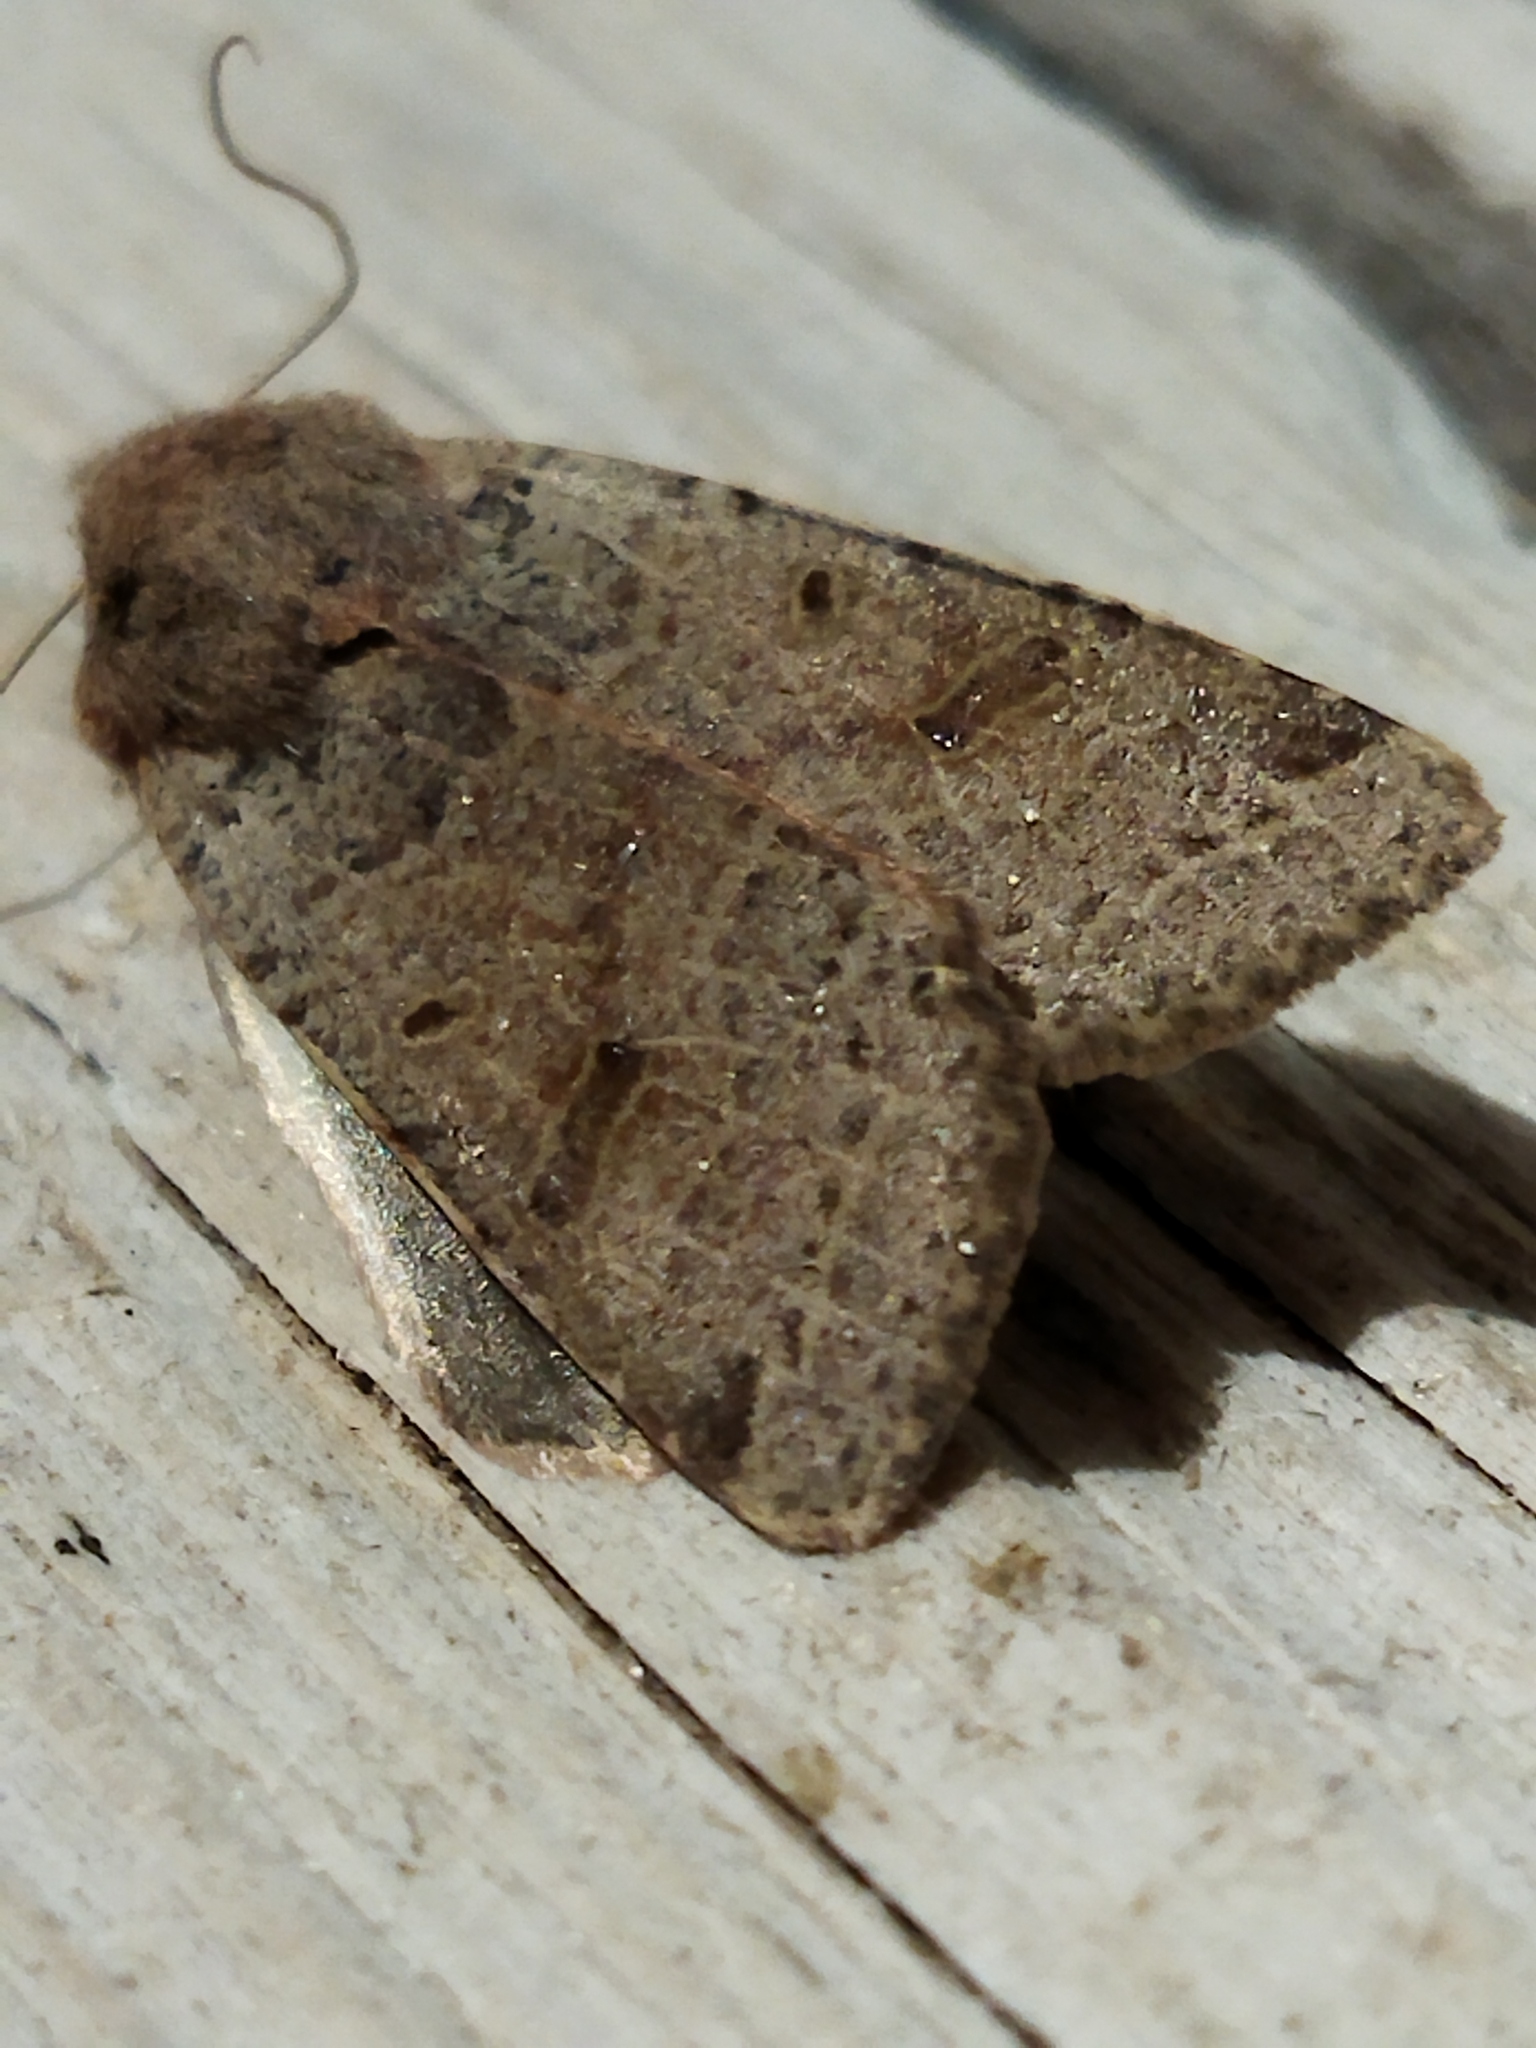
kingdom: Animalia
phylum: Arthropoda
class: Insecta
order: Lepidoptera
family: Noctuidae
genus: Agrochola
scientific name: Agrochola lychnidis
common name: Beaded chestnut
